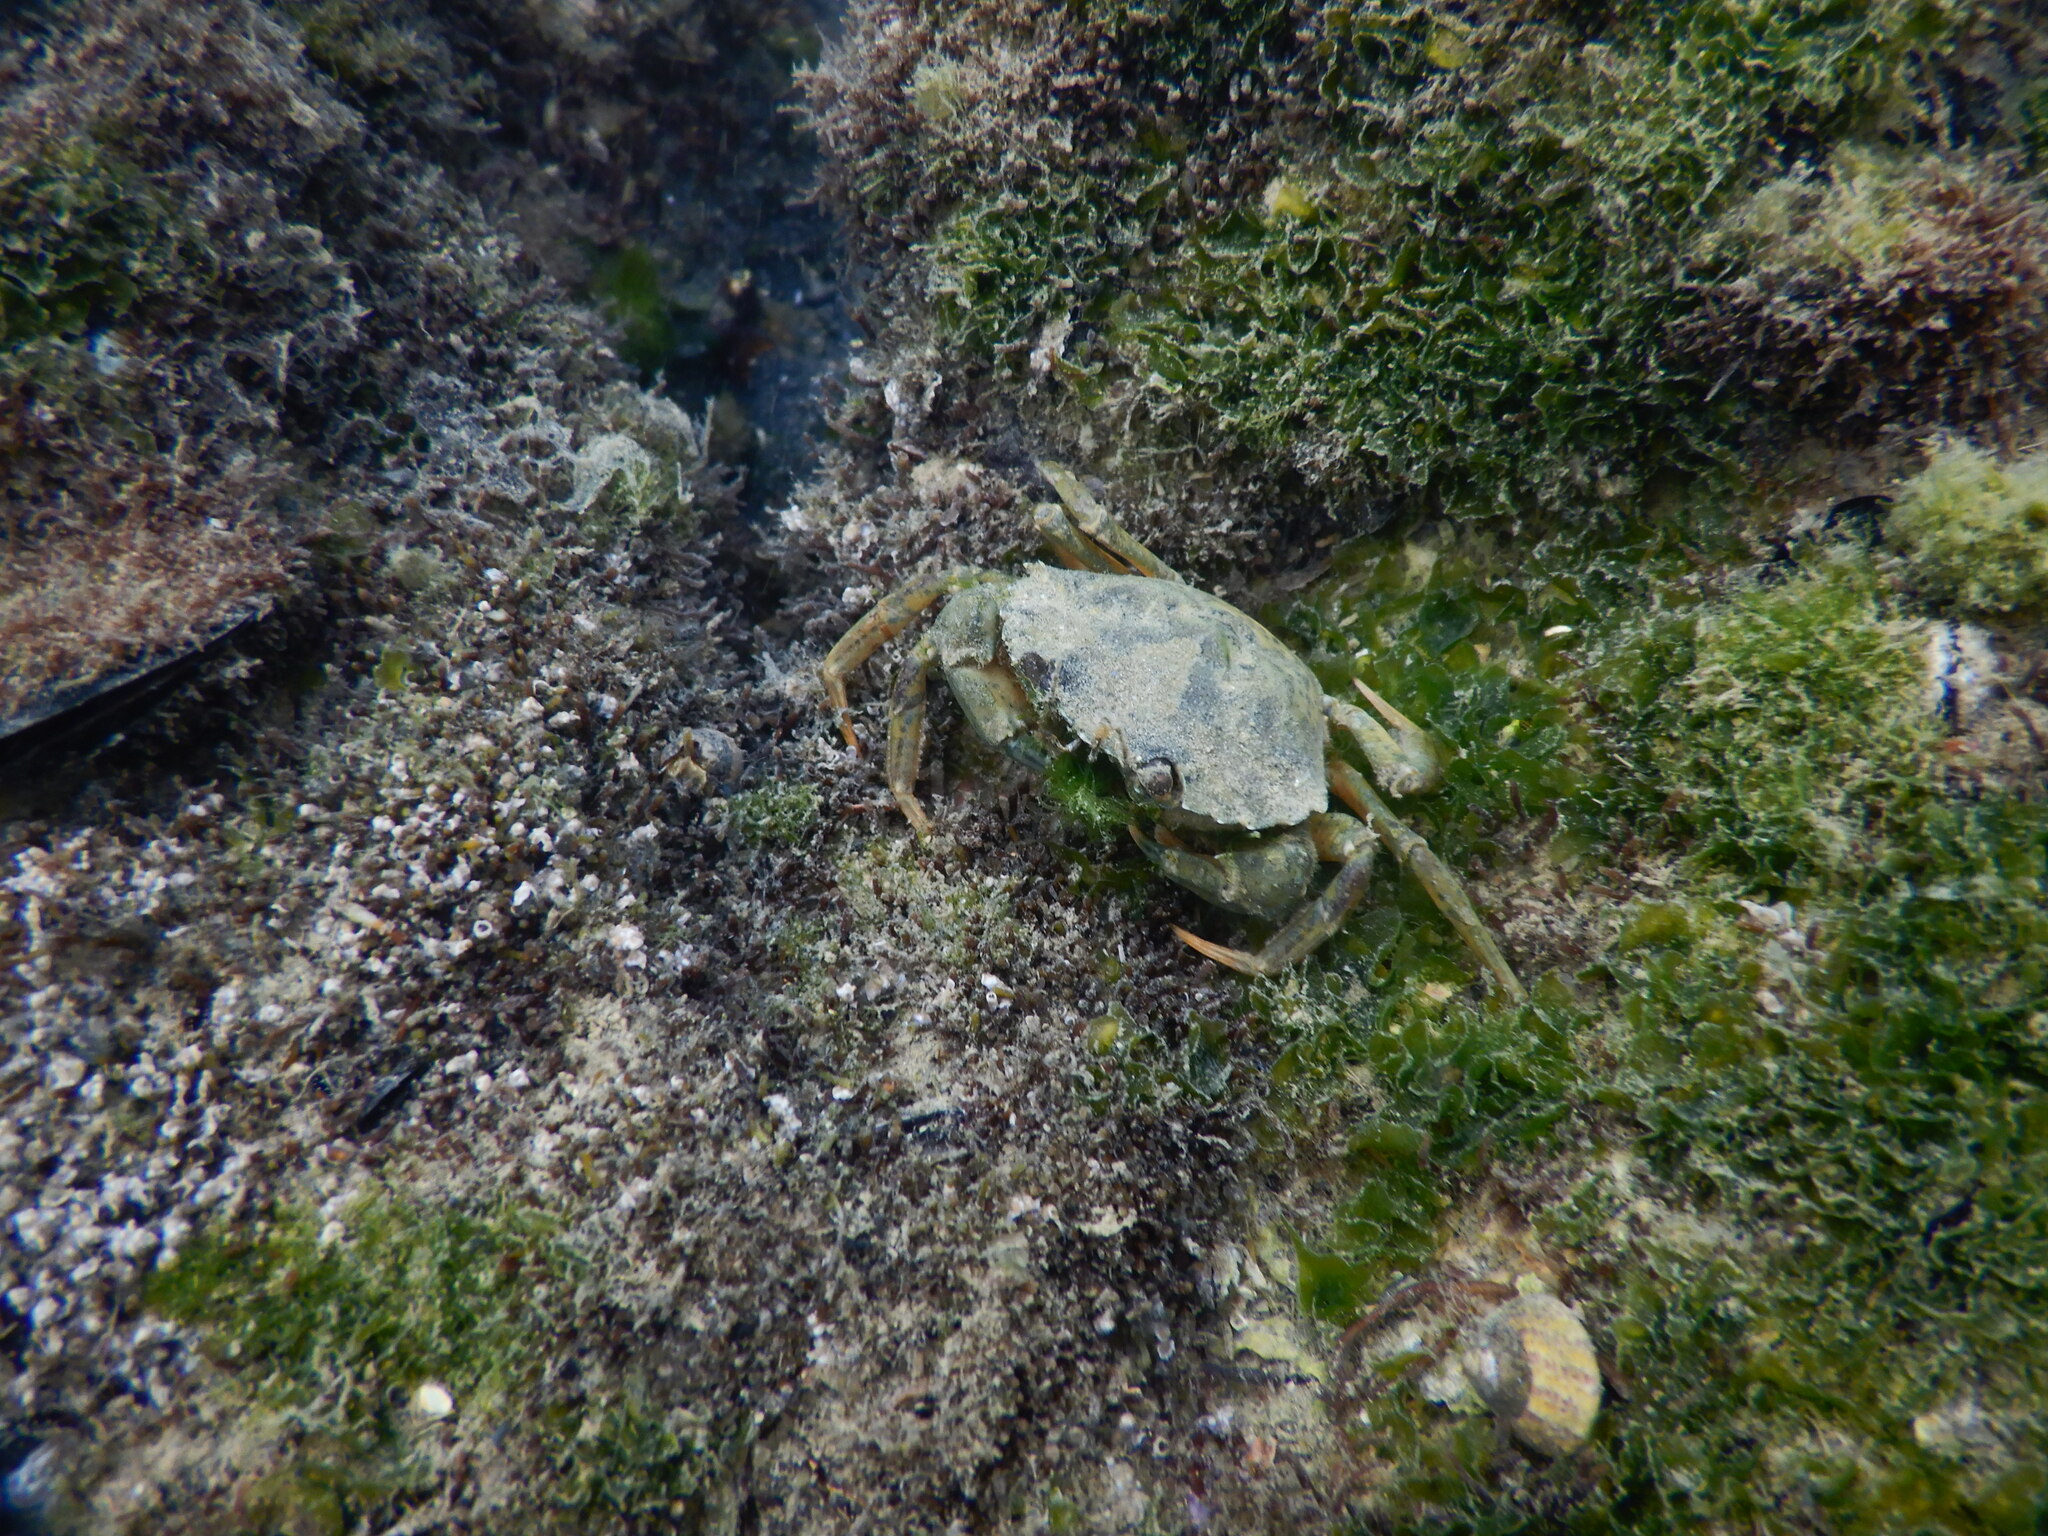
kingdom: Animalia
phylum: Arthropoda
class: Malacostraca
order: Decapoda
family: Carcinidae
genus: Carcinus
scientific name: Carcinus aestuarii
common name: Mediterranean green crab
